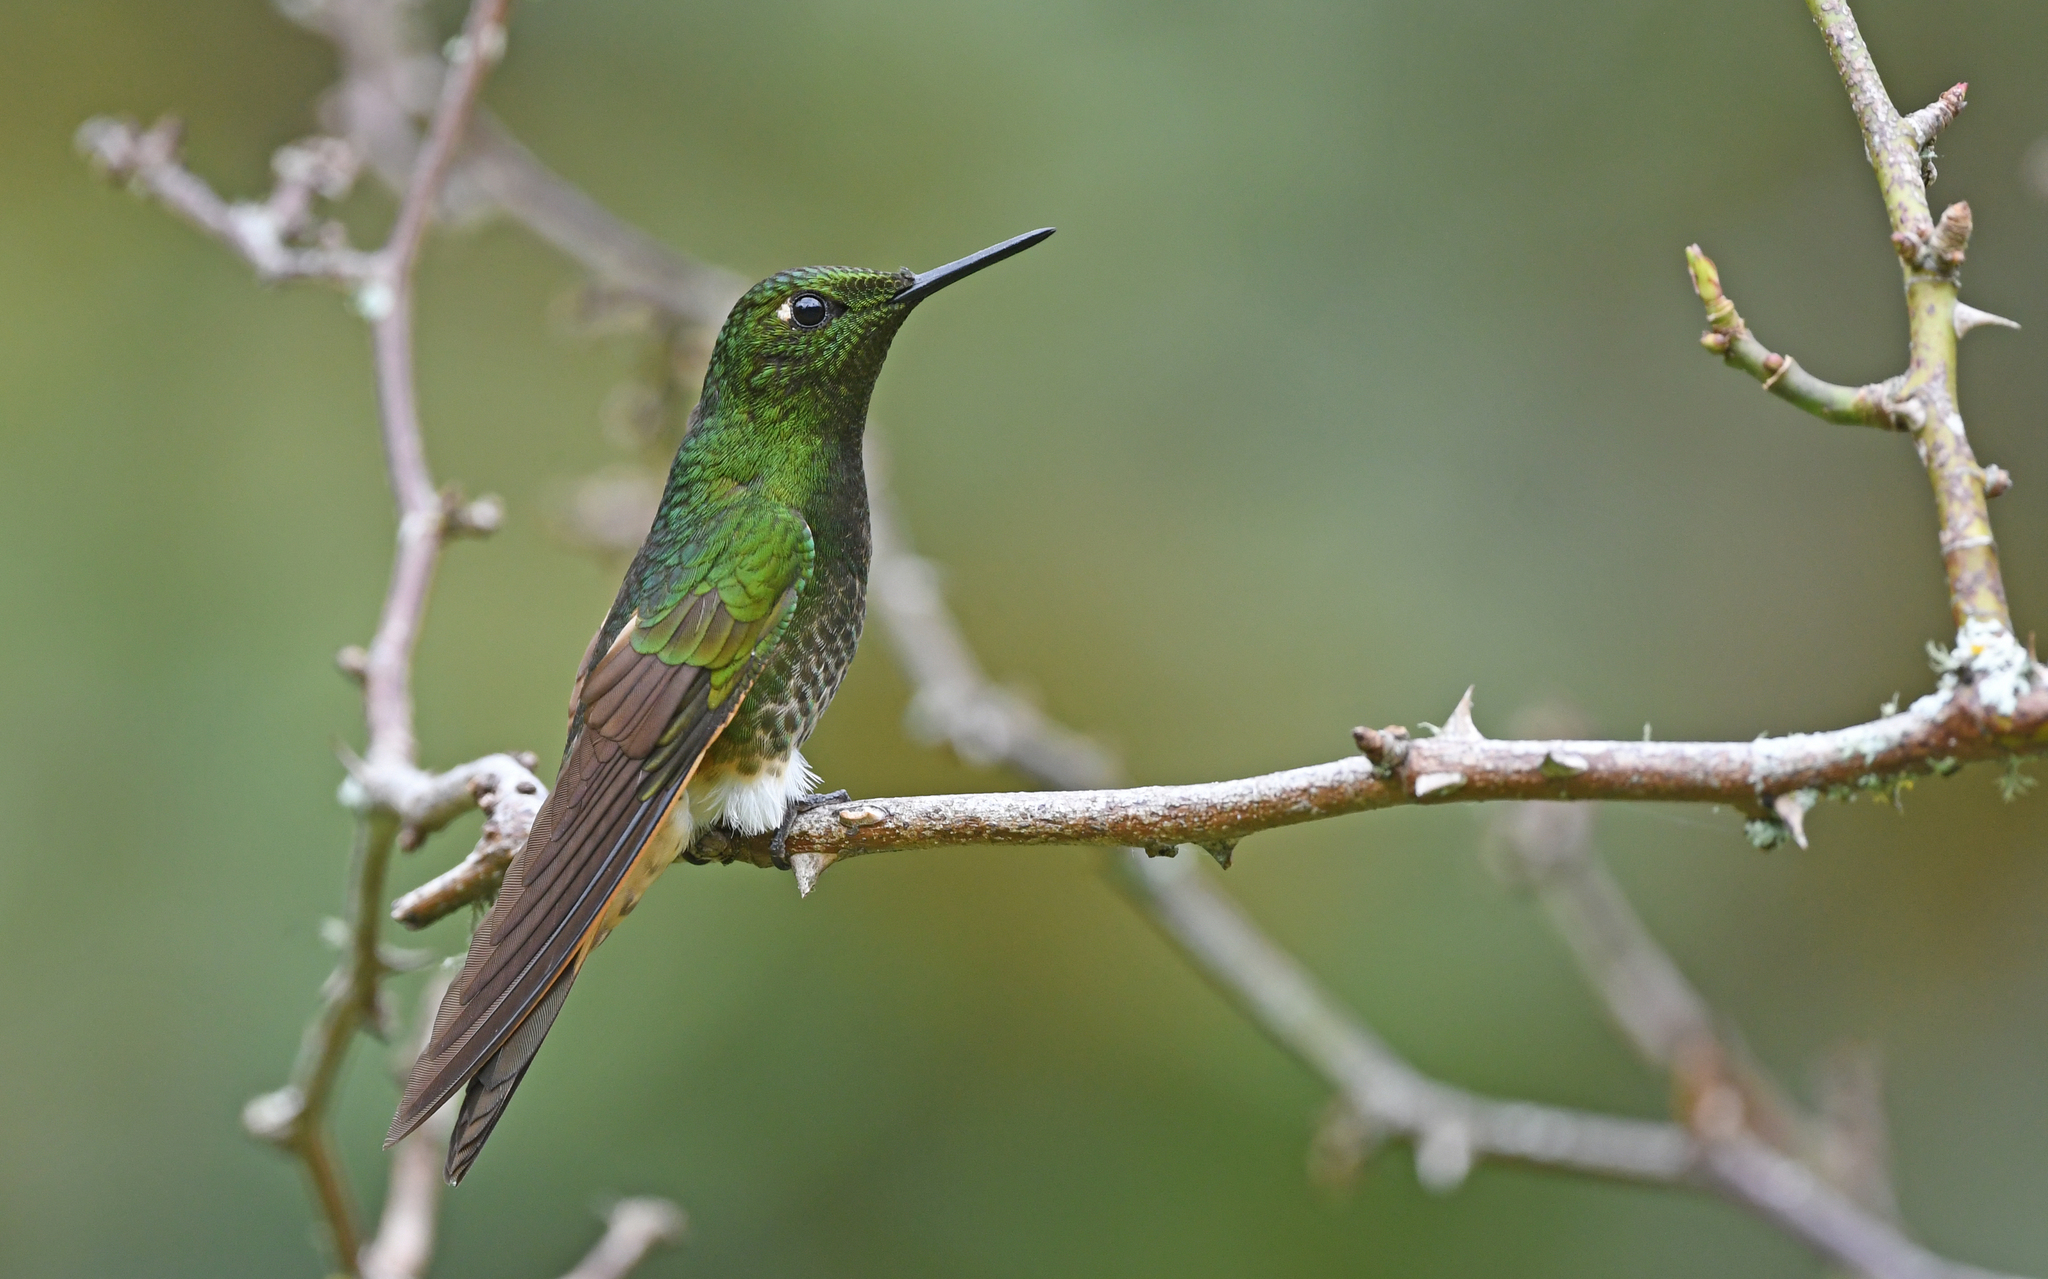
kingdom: Animalia
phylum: Chordata
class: Aves
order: Apodiformes
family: Trochilidae
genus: Boissonneaua
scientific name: Boissonneaua flavescens
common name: Buff-tailed coronet
